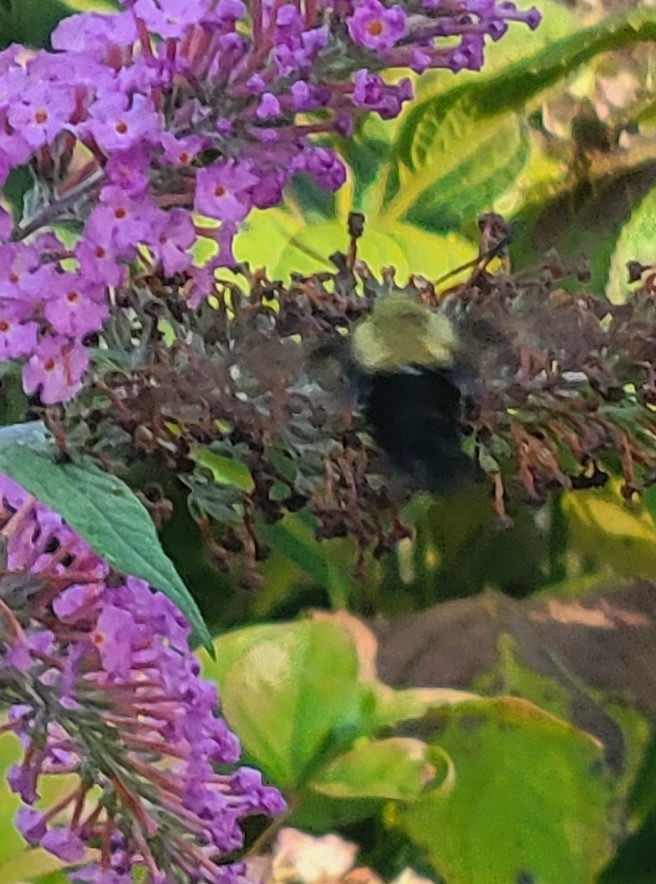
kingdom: Animalia
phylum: Arthropoda
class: Insecta
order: Lepidoptera
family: Sphingidae
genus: Hemaris
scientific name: Hemaris diffinis
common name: Bumblebee moth
